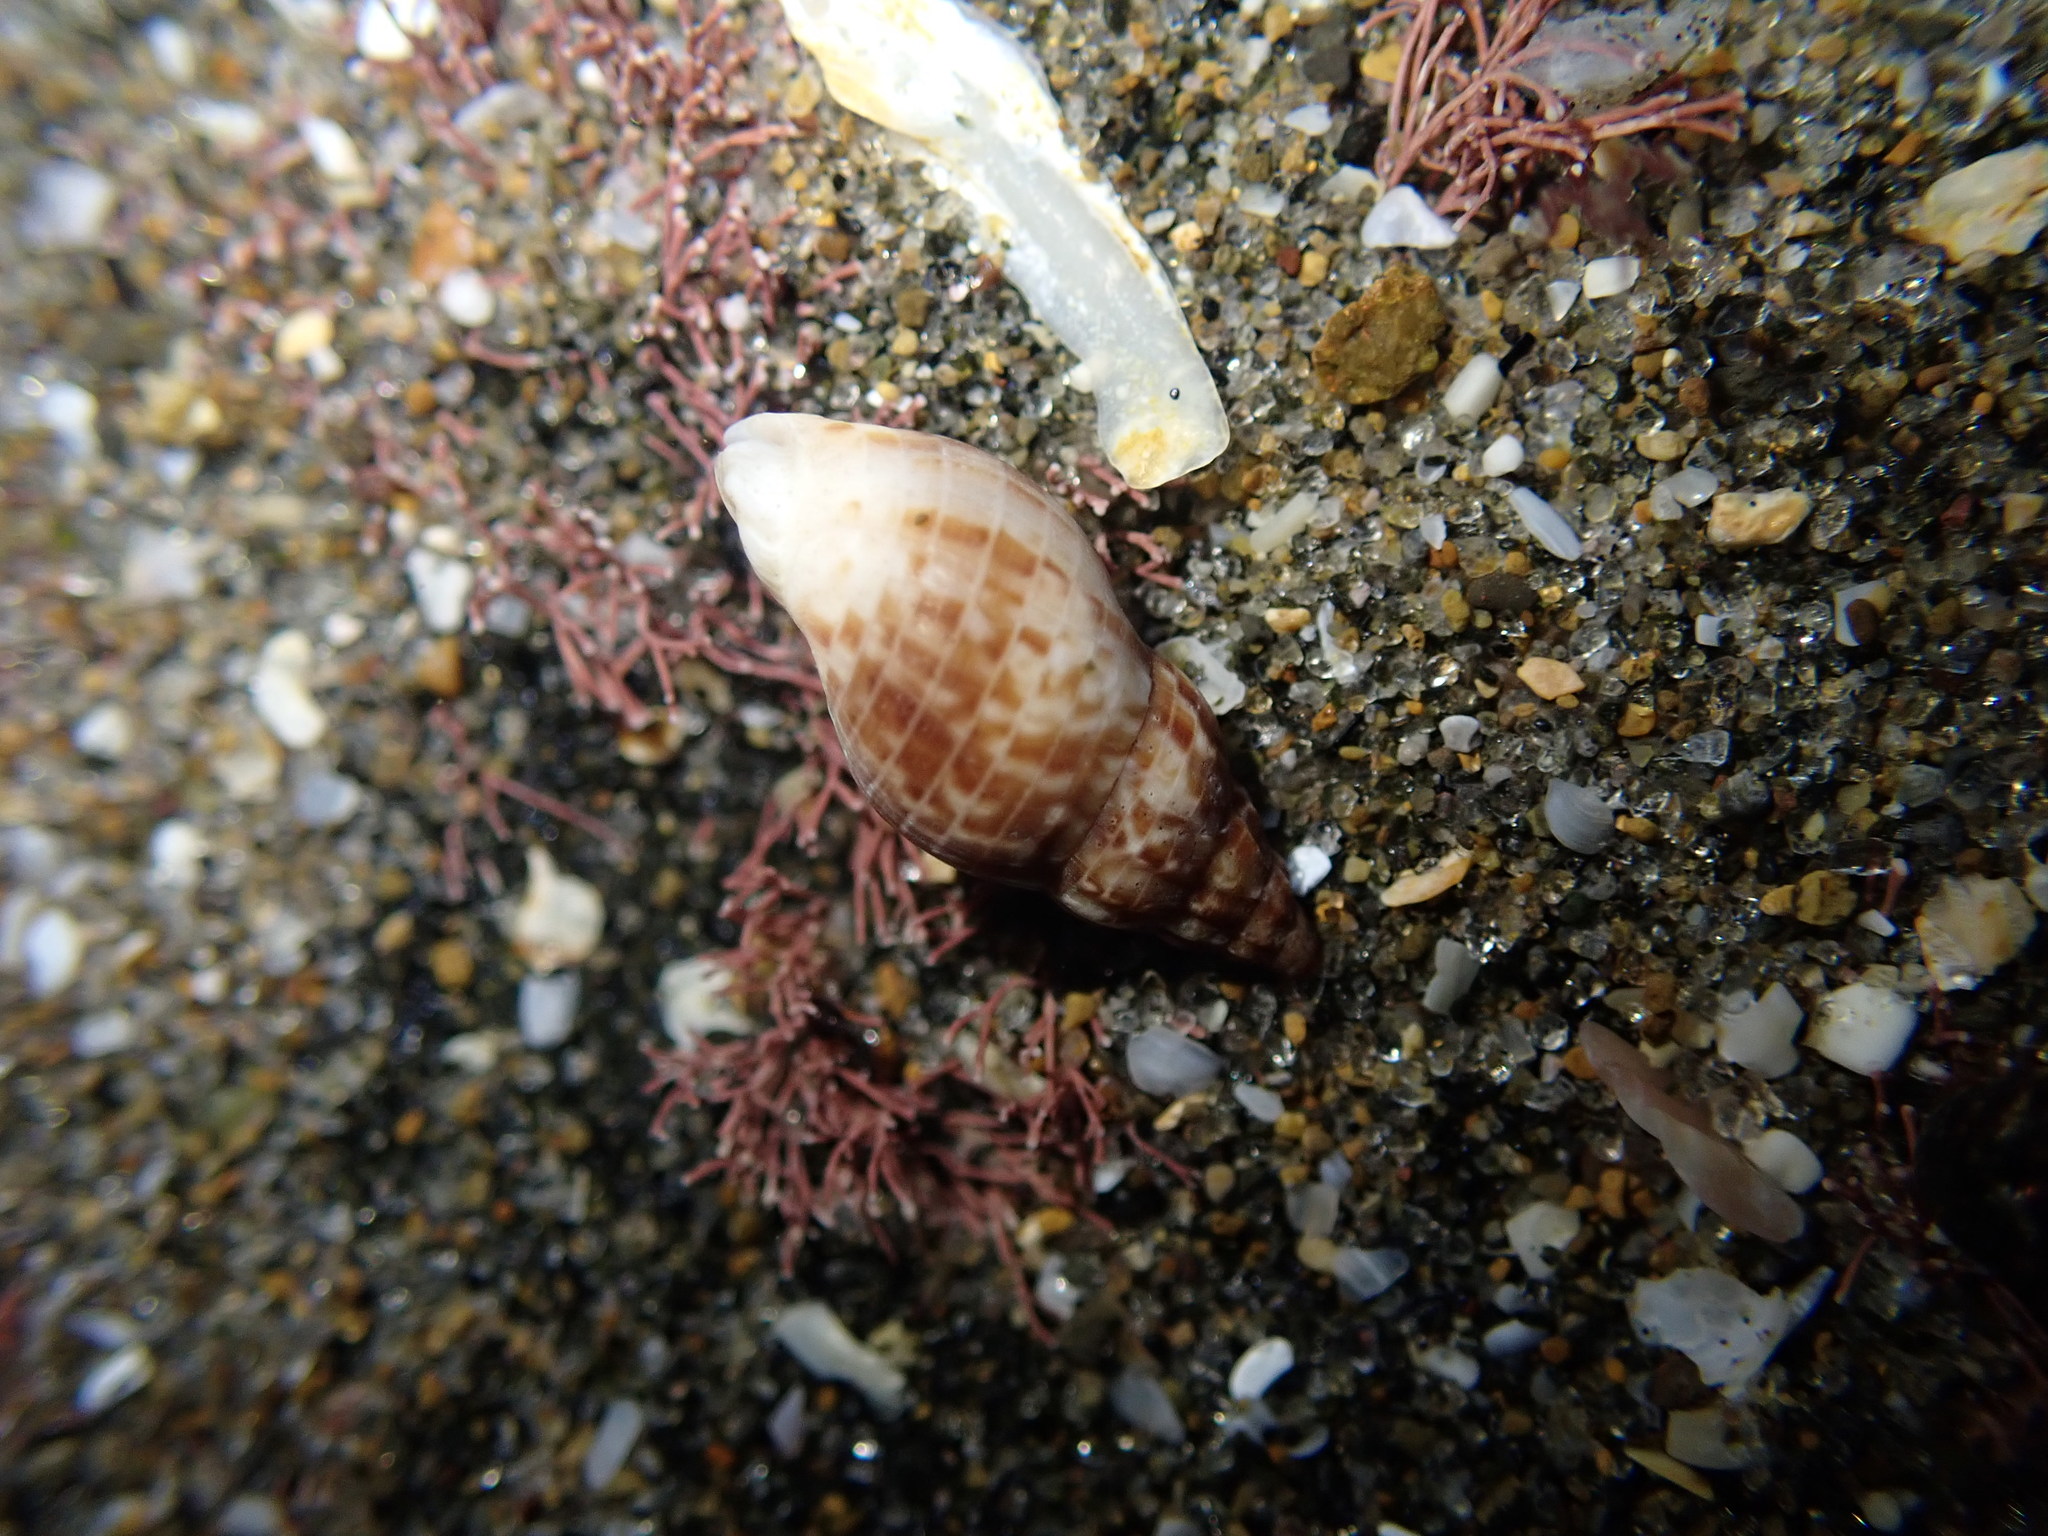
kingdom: Animalia
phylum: Mollusca
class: Gastropoda
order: Neogastropoda
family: Cominellidae
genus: Cominella
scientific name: Cominella accuminata
